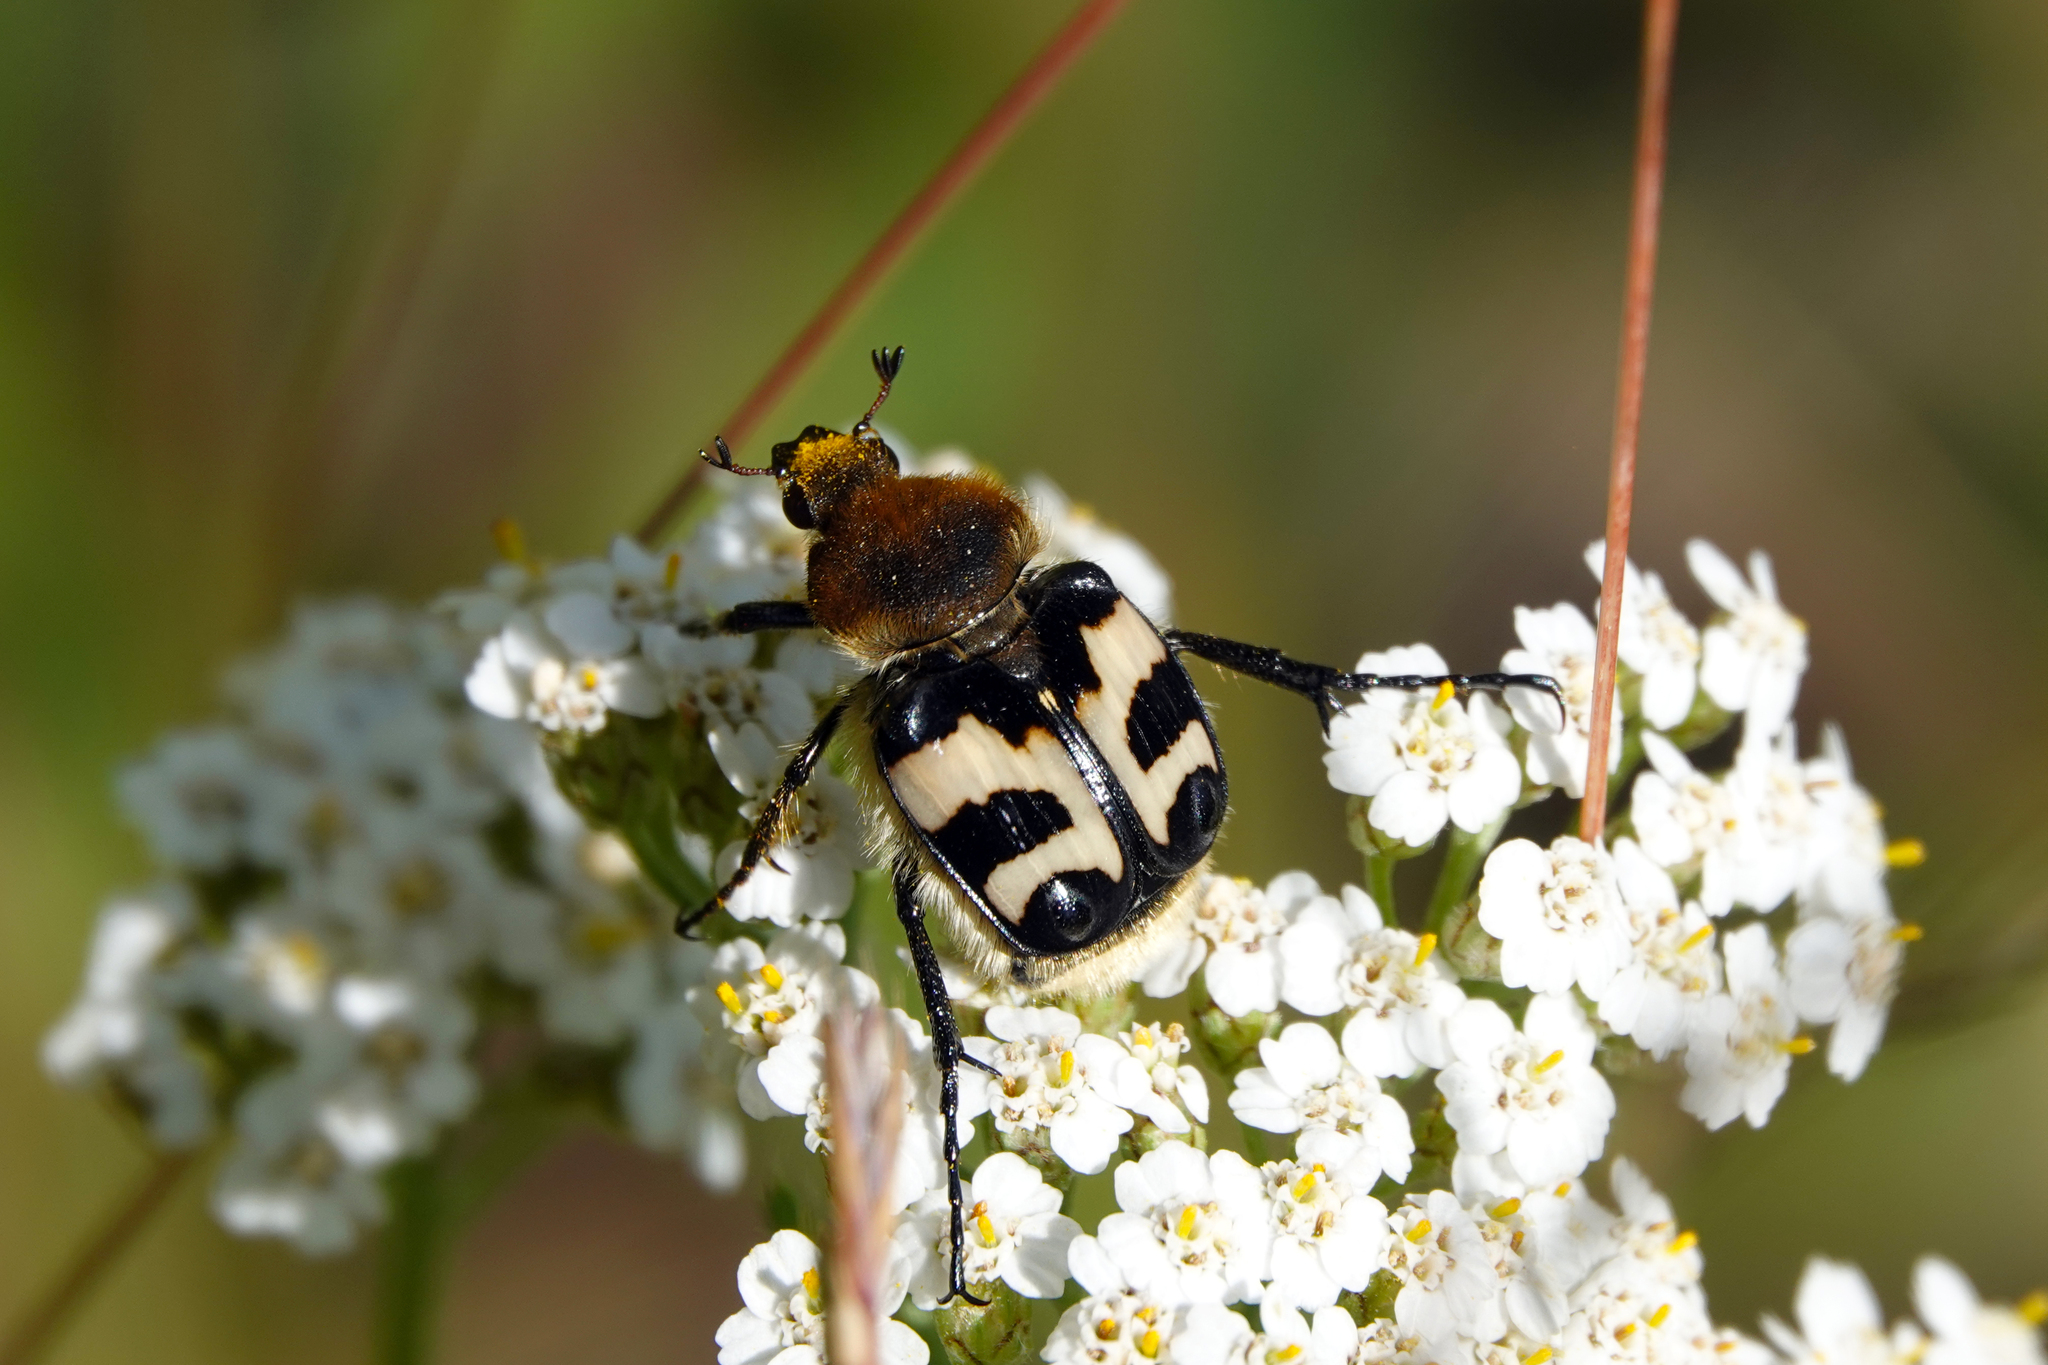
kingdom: Animalia
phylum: Arthropoda
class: Insecta
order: Coleoptera
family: Scarabaeidae
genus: Trichius
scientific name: Trichius fasciatus
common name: Bee beetle
